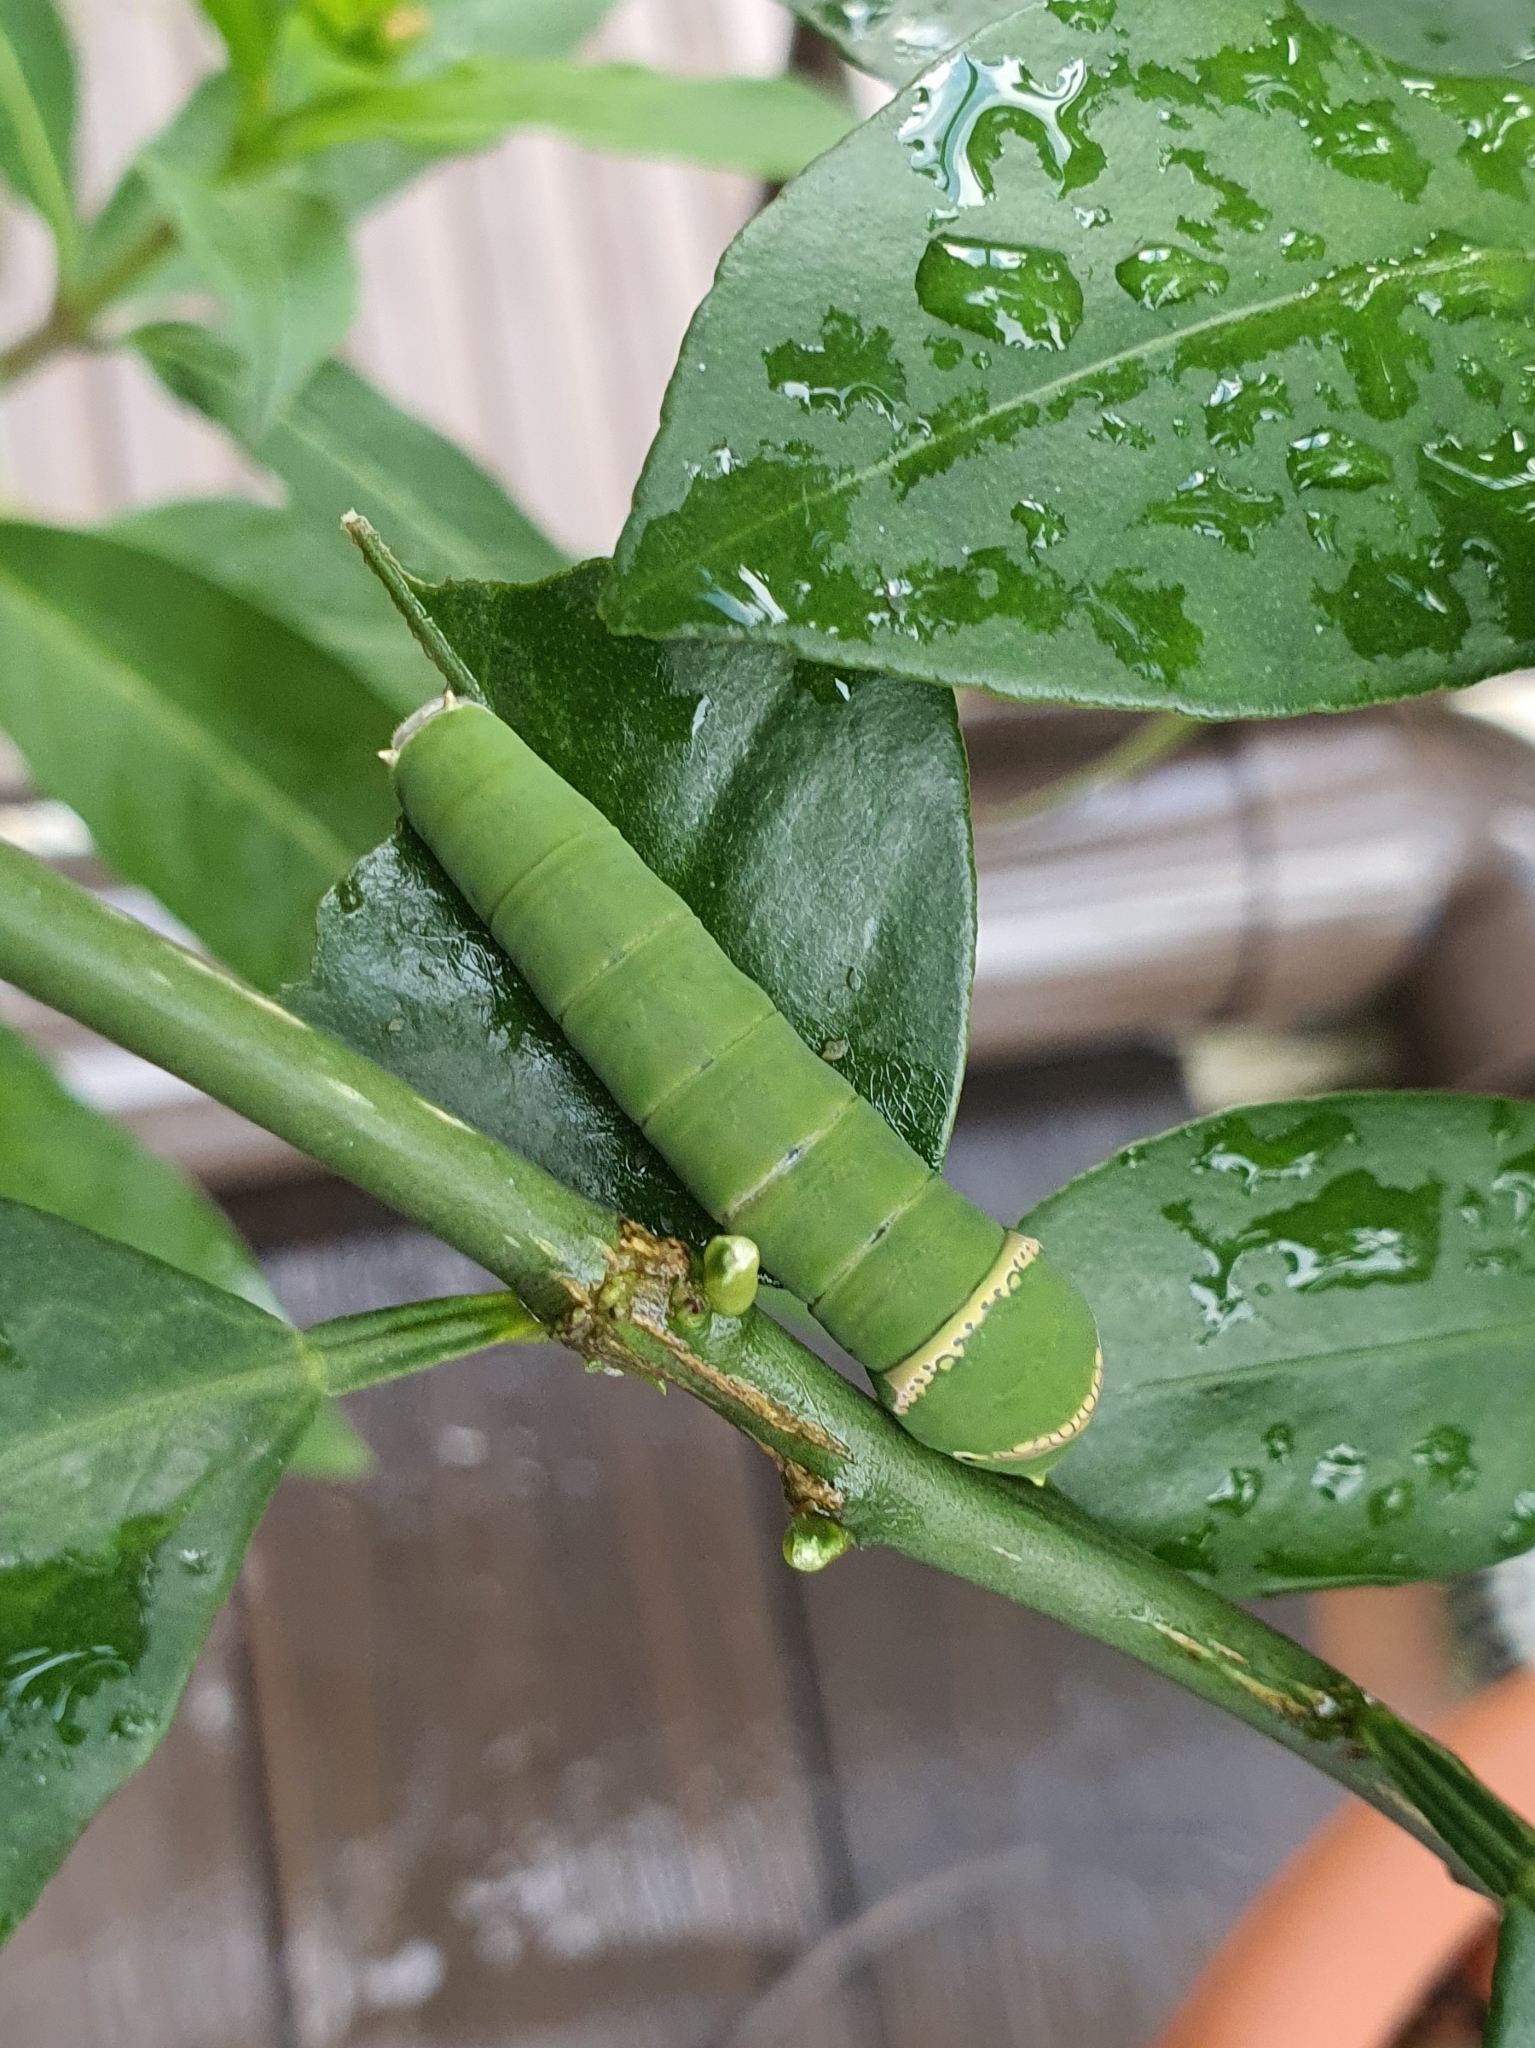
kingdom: Animalia
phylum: Arthropoda
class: Insecta
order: Lepidoptera
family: Papilionidae
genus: Papilio
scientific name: Papilio demoleus
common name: Lime butterfly
